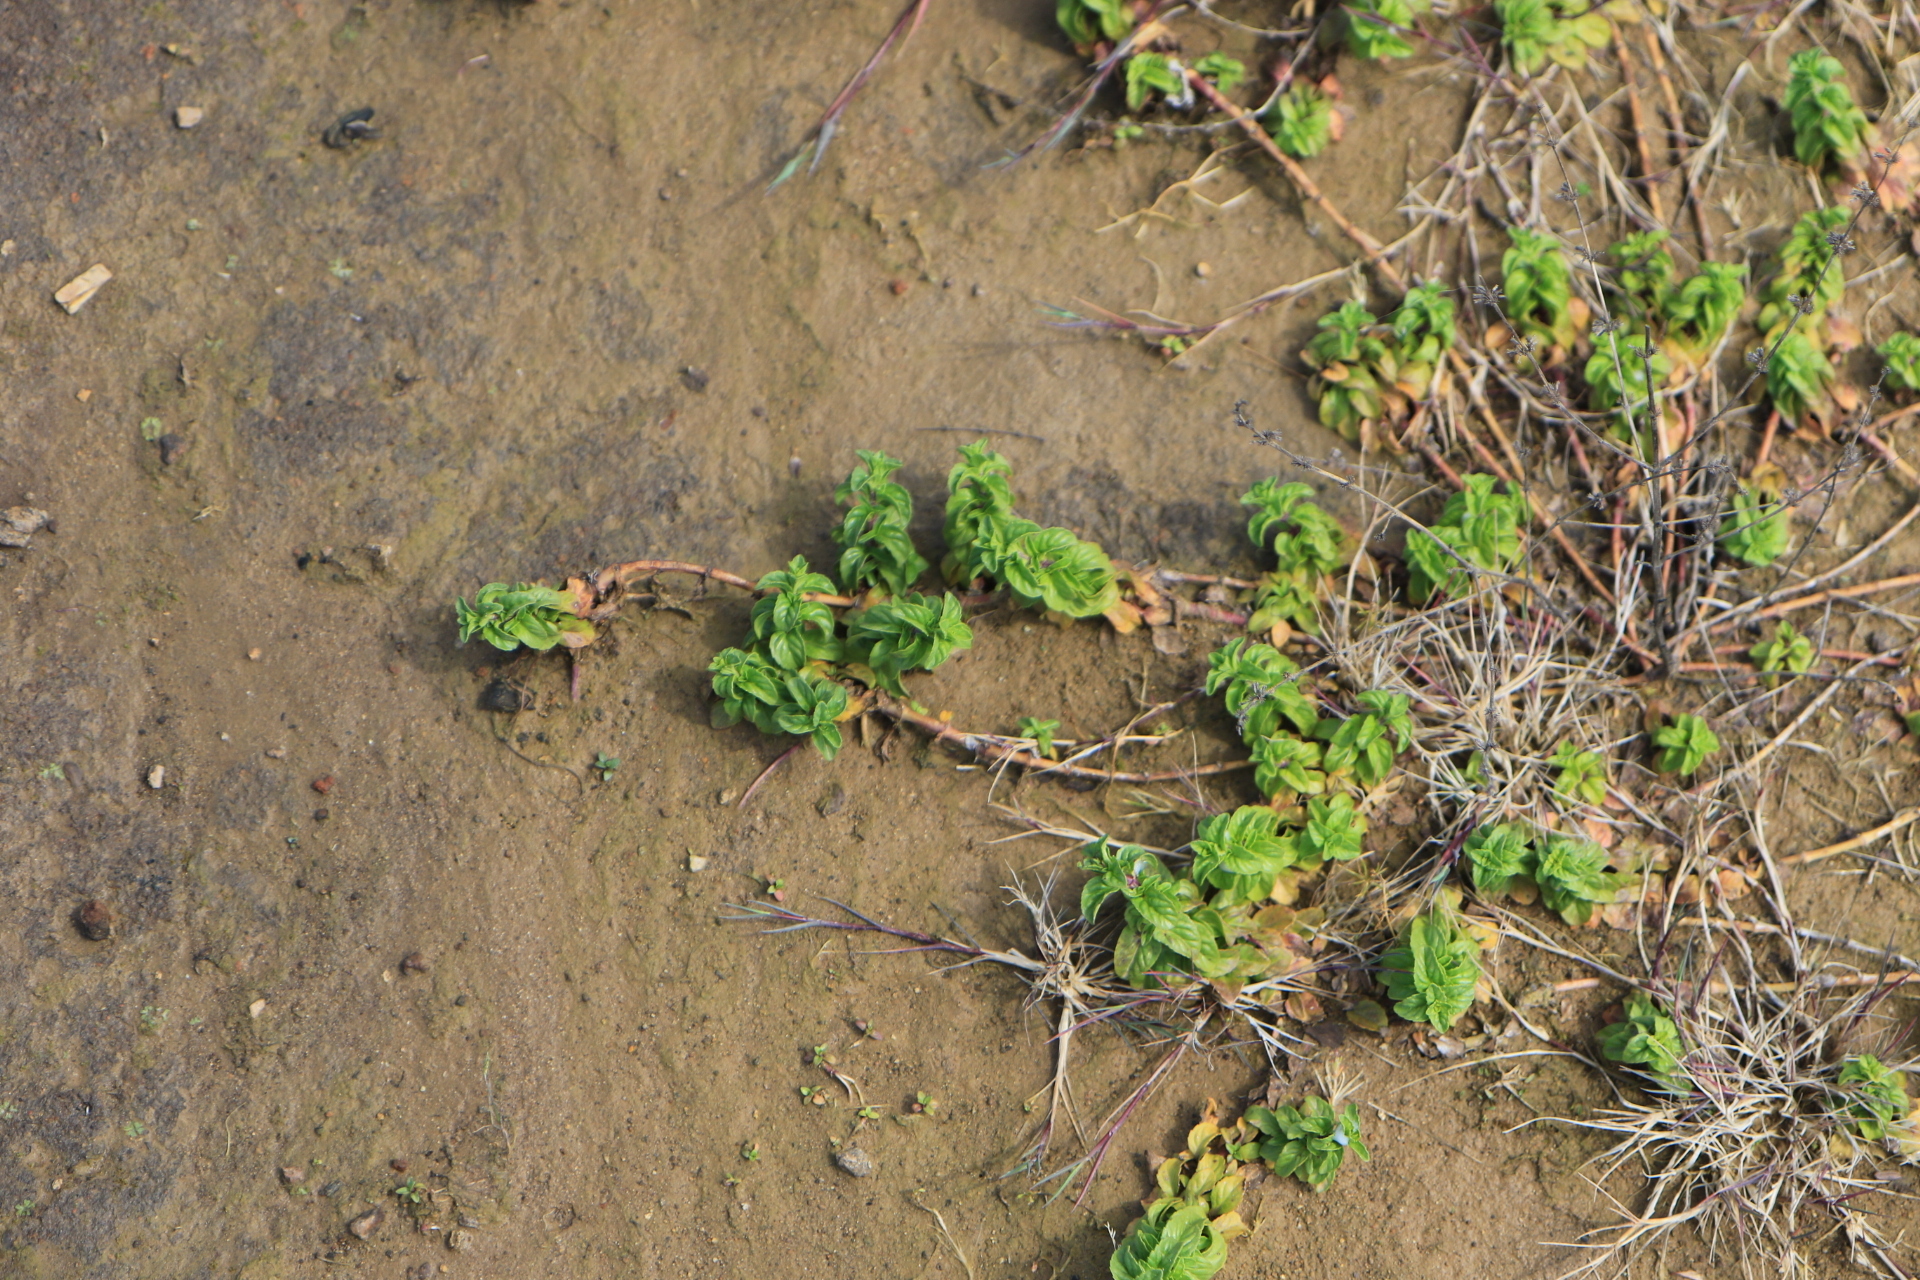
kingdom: Plantae
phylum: Tracheophyta
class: Magnoliopsida
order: Lamiales
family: Lamiaceae
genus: Mentha
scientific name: Mentha pulegium
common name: Pennyroyal
